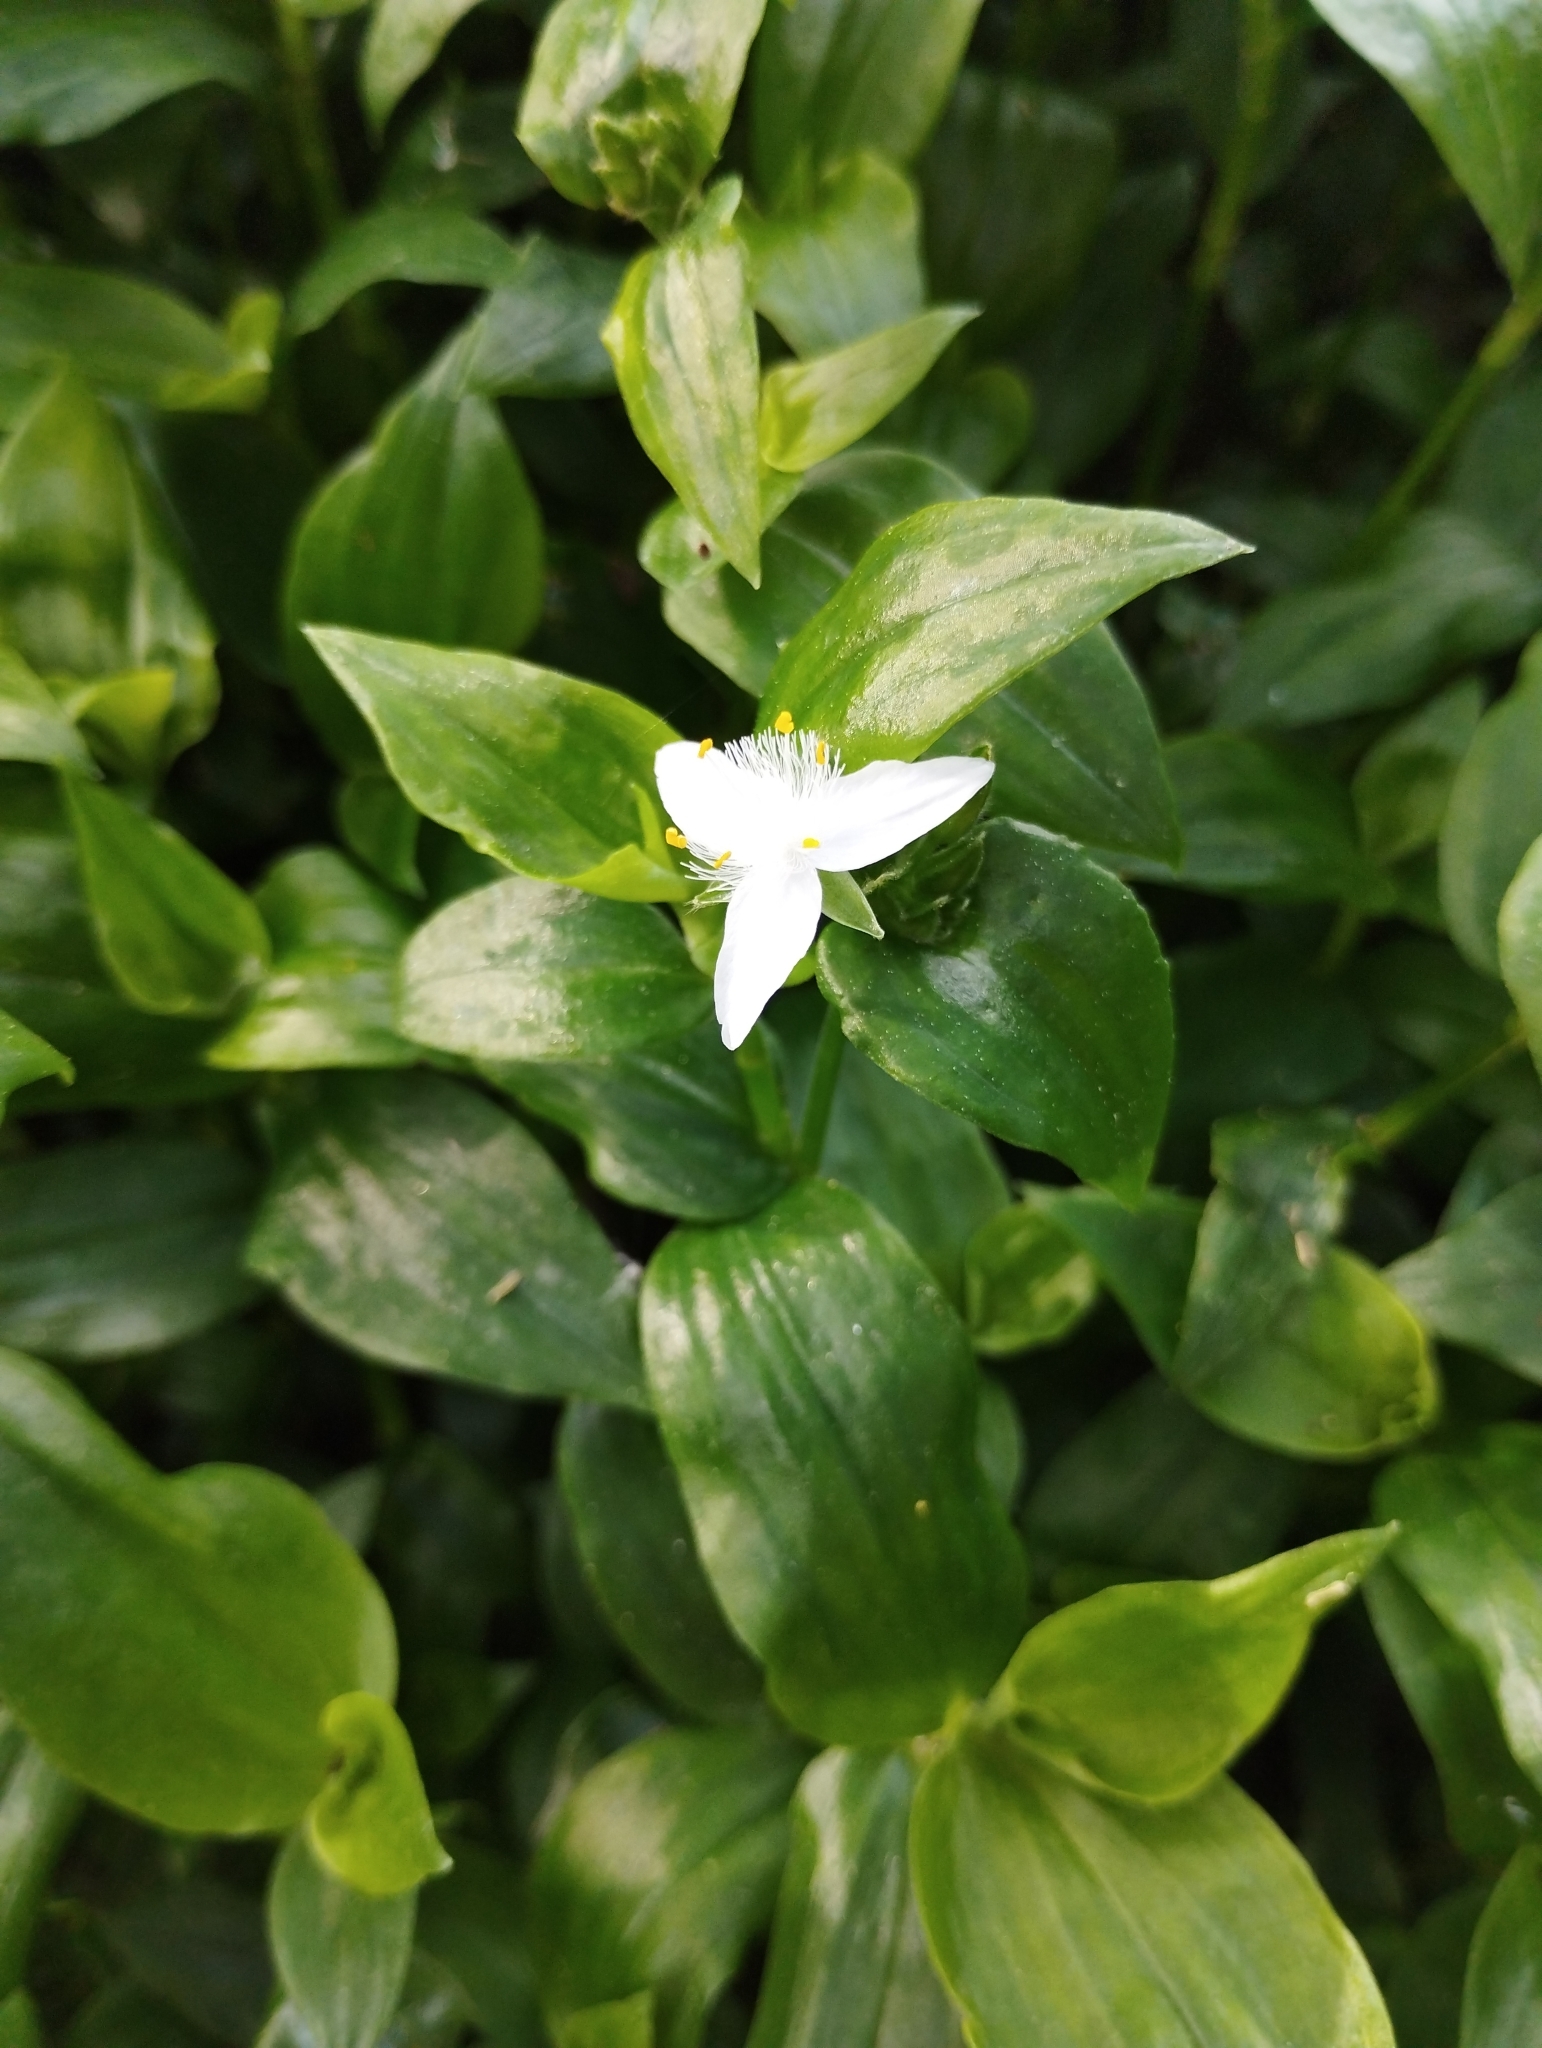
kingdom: Plantae
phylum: Tracheophyta
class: Liliopsida
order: Commelinales
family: Commelinaceae
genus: Tradescantia
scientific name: Tradescantia fluminensis
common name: Wandering-jew
